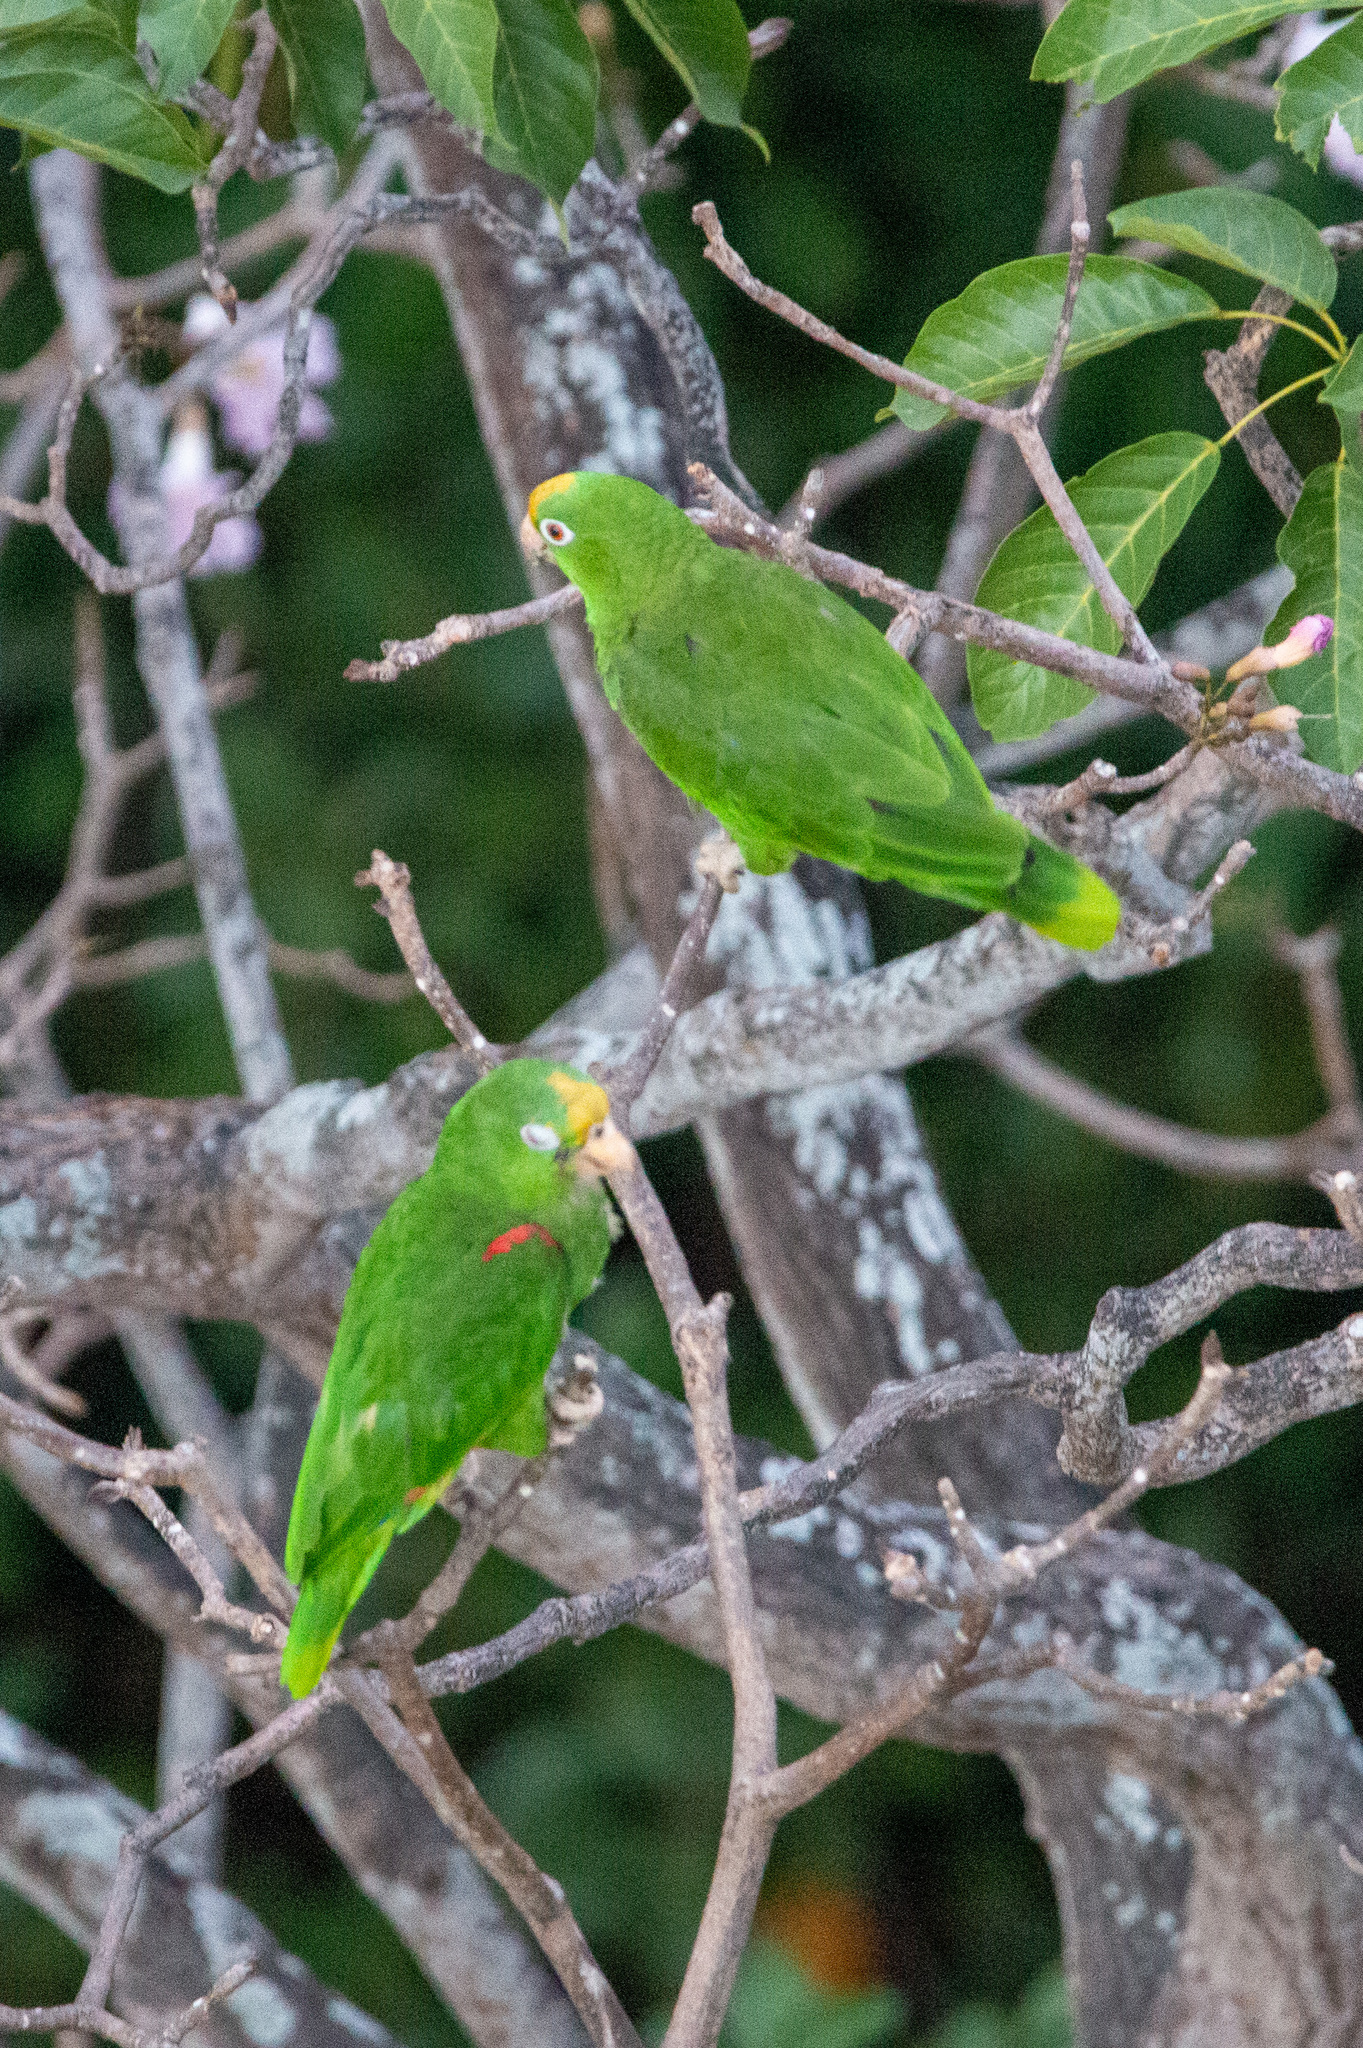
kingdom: Animalia
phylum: Chordata
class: Aves
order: Psittaciformes
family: Psittacidae
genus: Amazona
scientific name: Amazona ochrocephala
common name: Yellow-crowned amazon
